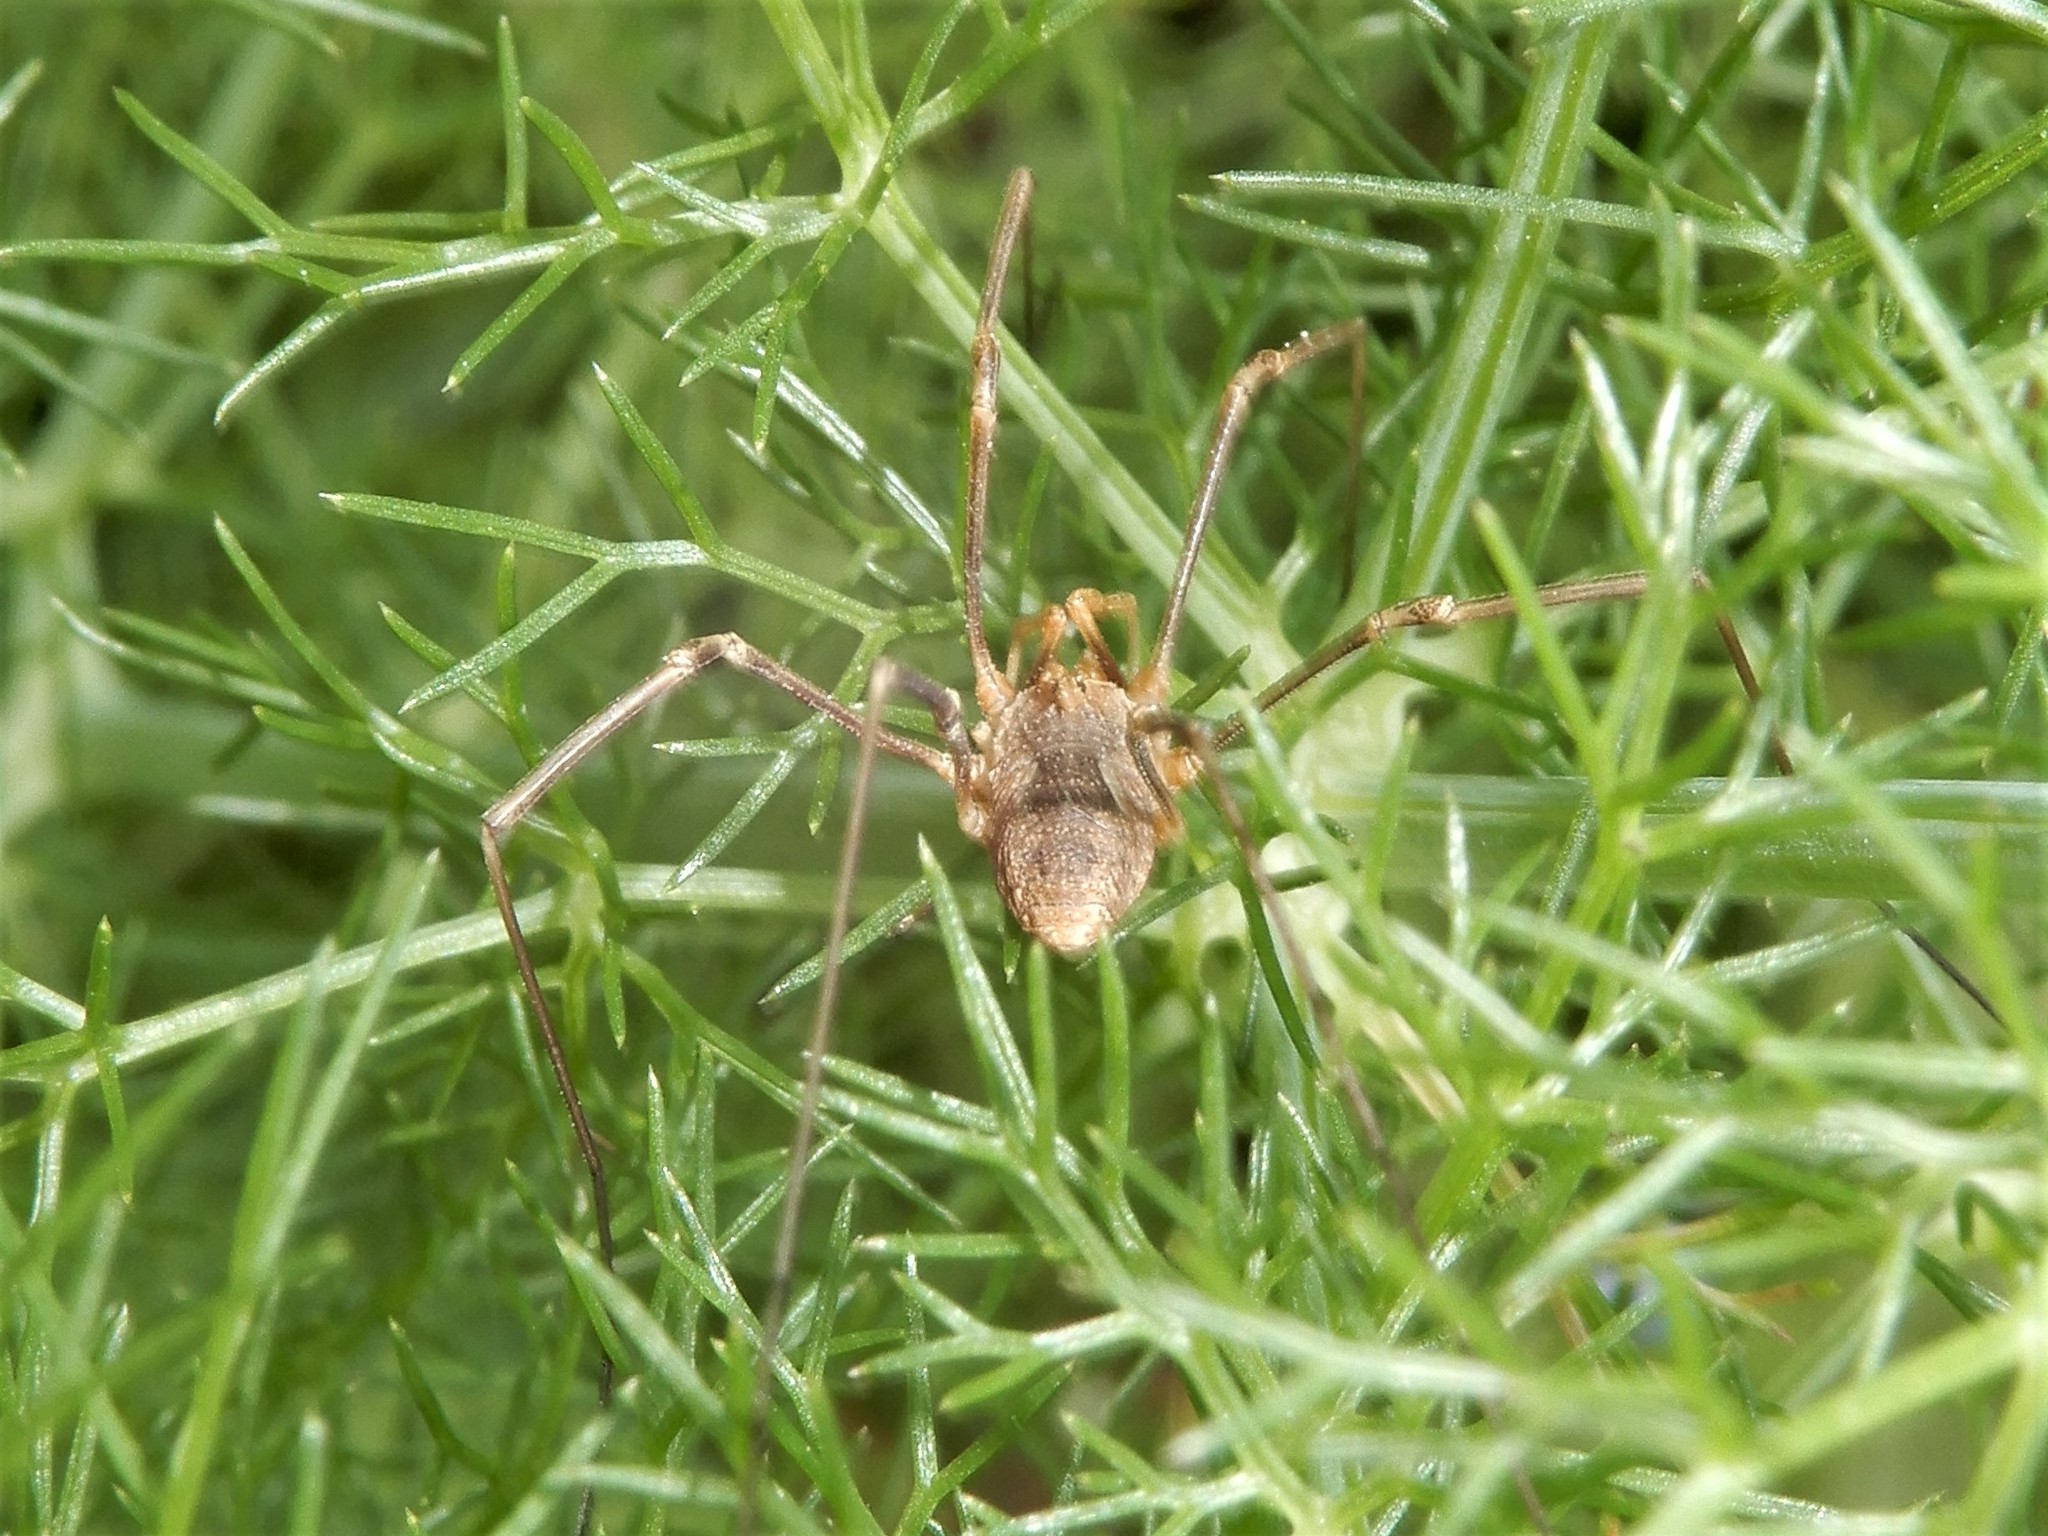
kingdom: Animalia
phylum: Arthropoda
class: Arachnida
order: Opiliones
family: Phalangiidae
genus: Phalangium
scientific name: Phalangium opilio
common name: Daddy longleg
